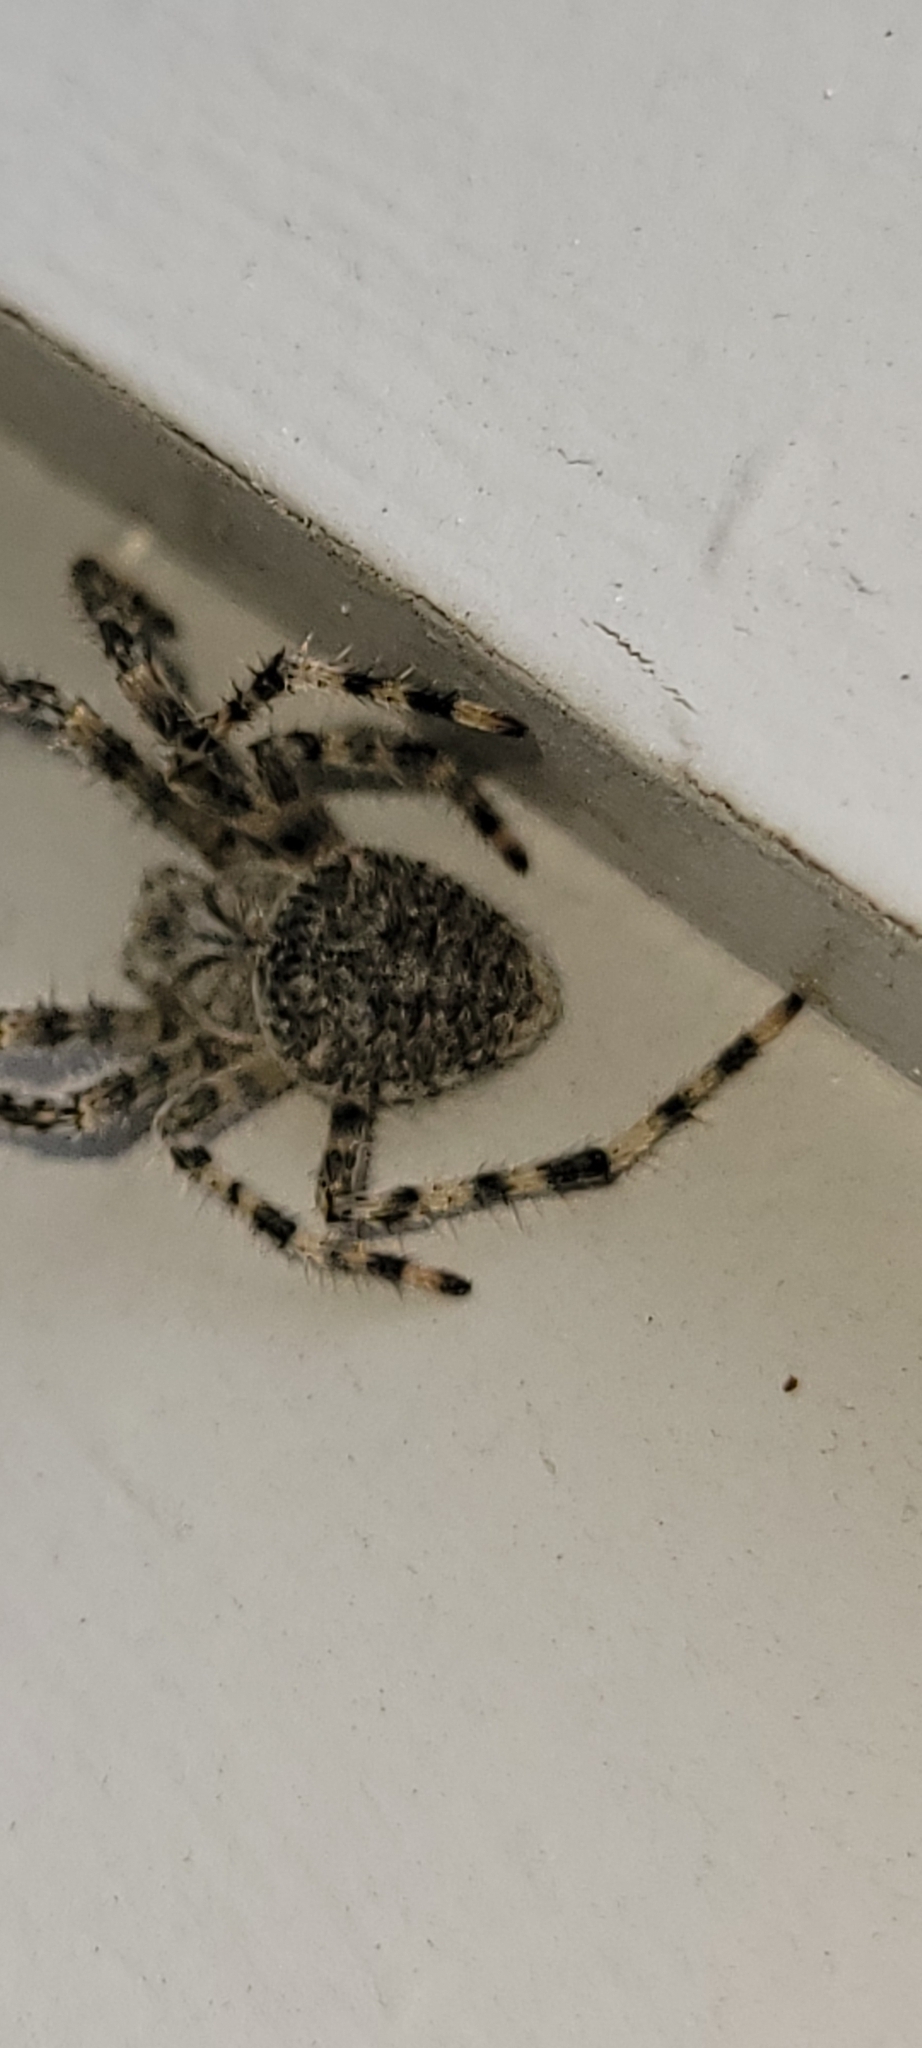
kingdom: Animalia
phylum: Arthropoda
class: Arachnida
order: Araneae
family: Araneidae
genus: Araneus
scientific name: Araneus cavaticus
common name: Barn orbweaver
